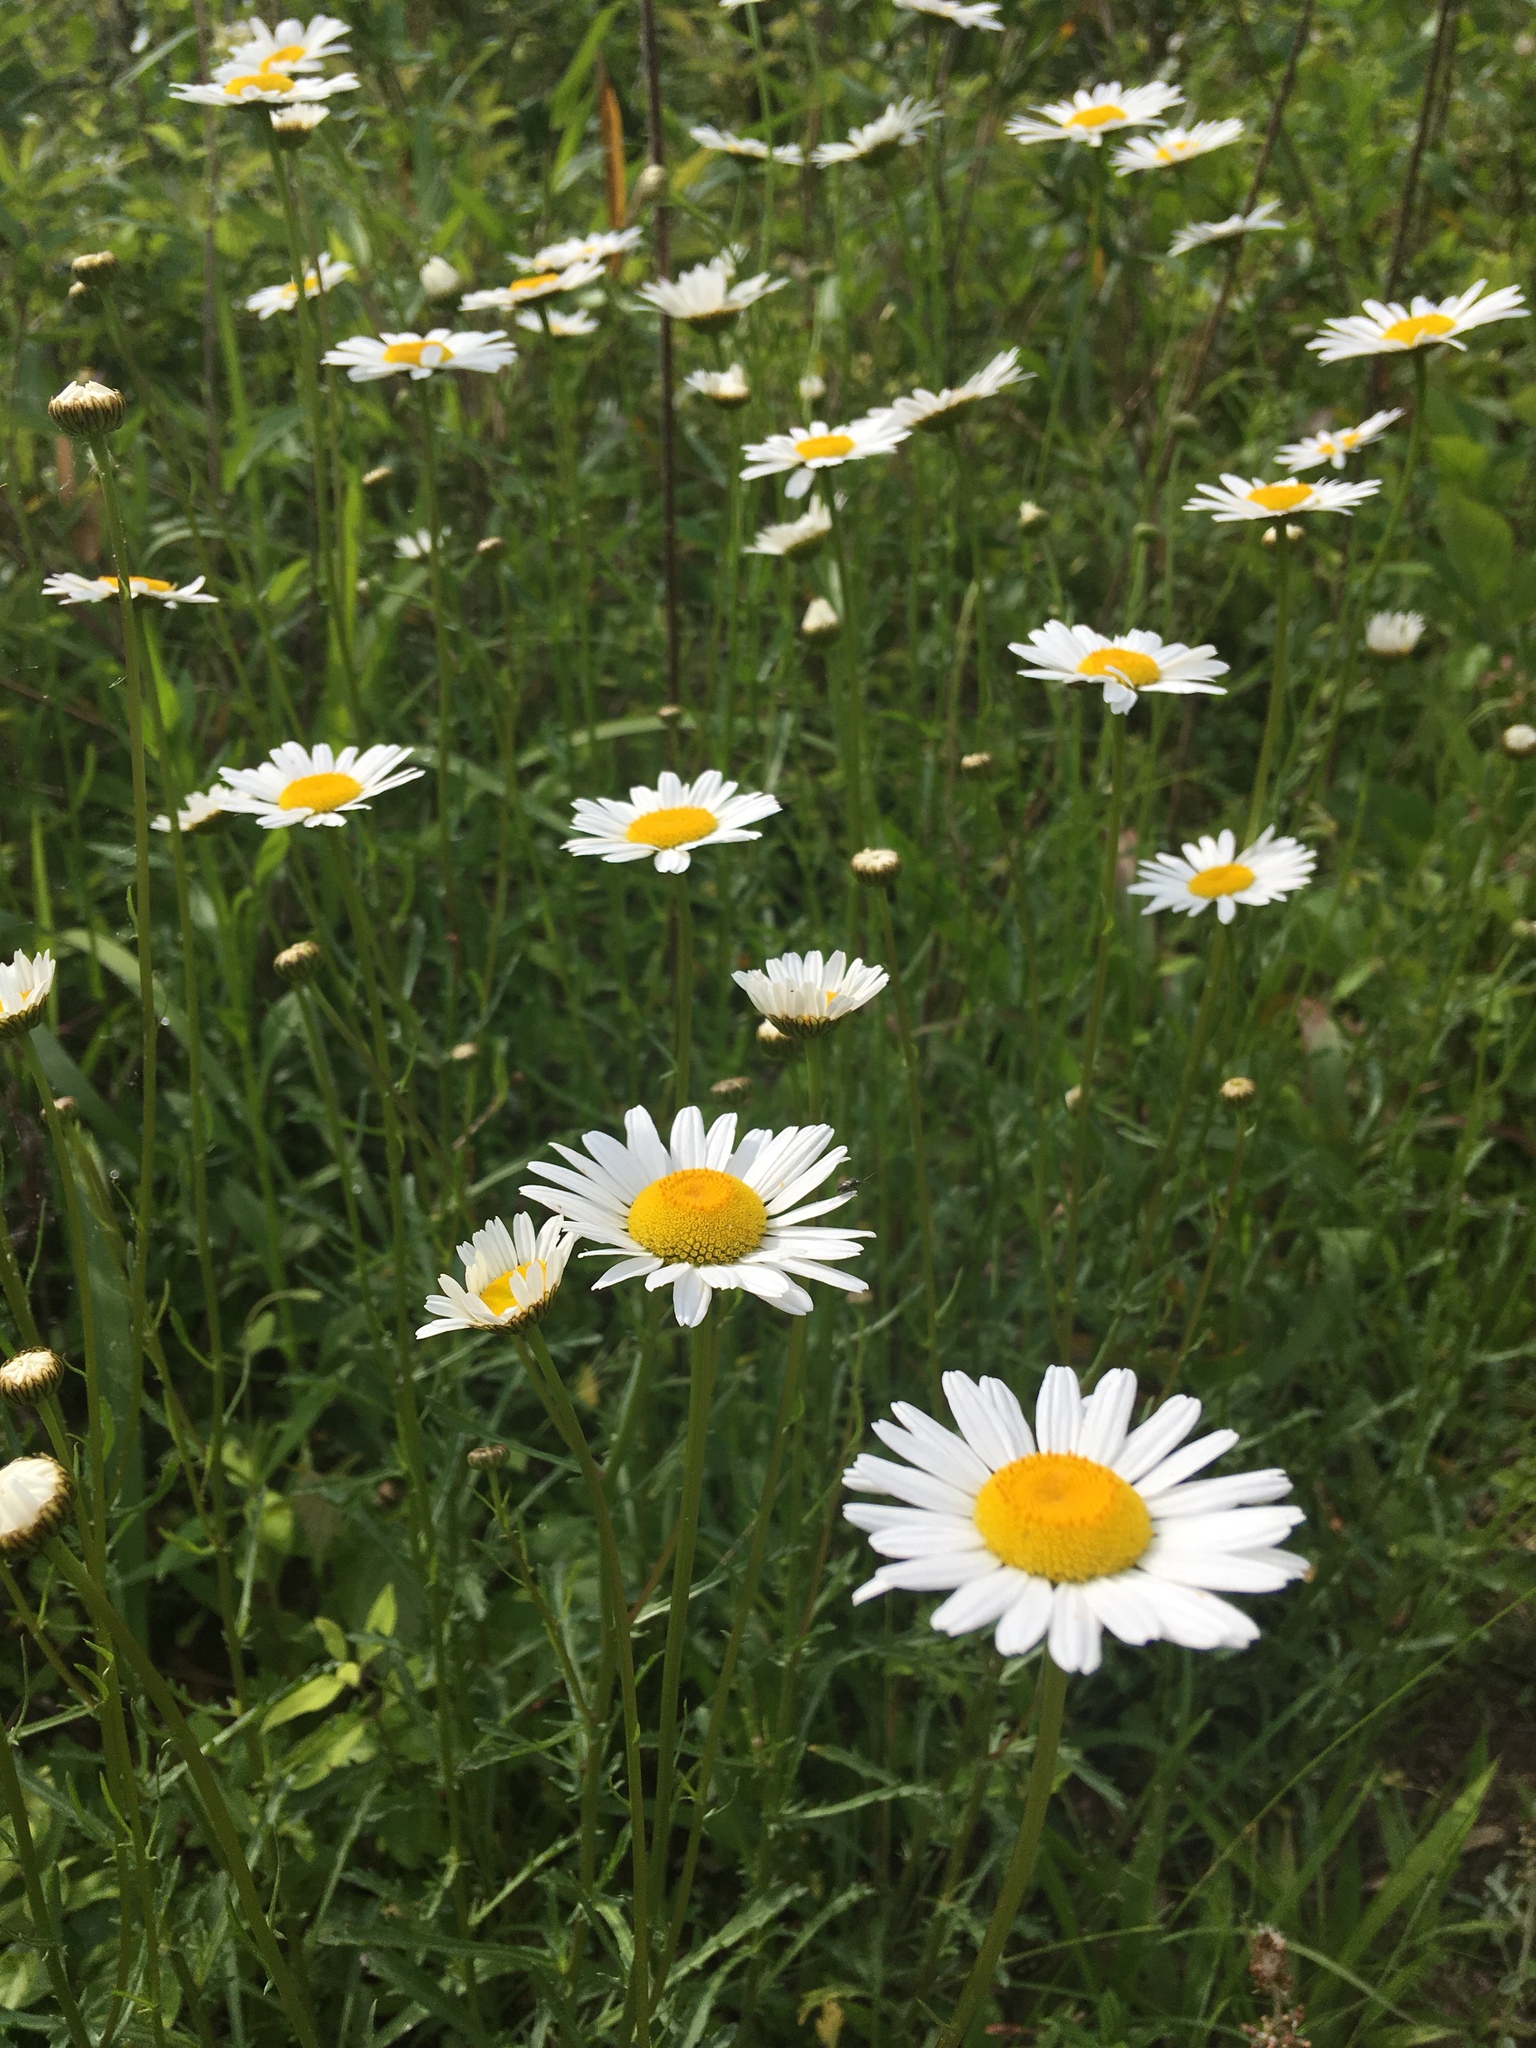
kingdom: Plantae
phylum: Tracheophyta
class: Magnoliopsida
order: Asterales
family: Asteraceae
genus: Leucanthemum
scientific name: Leucanthemum vulgare
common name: Oxeye daisy
